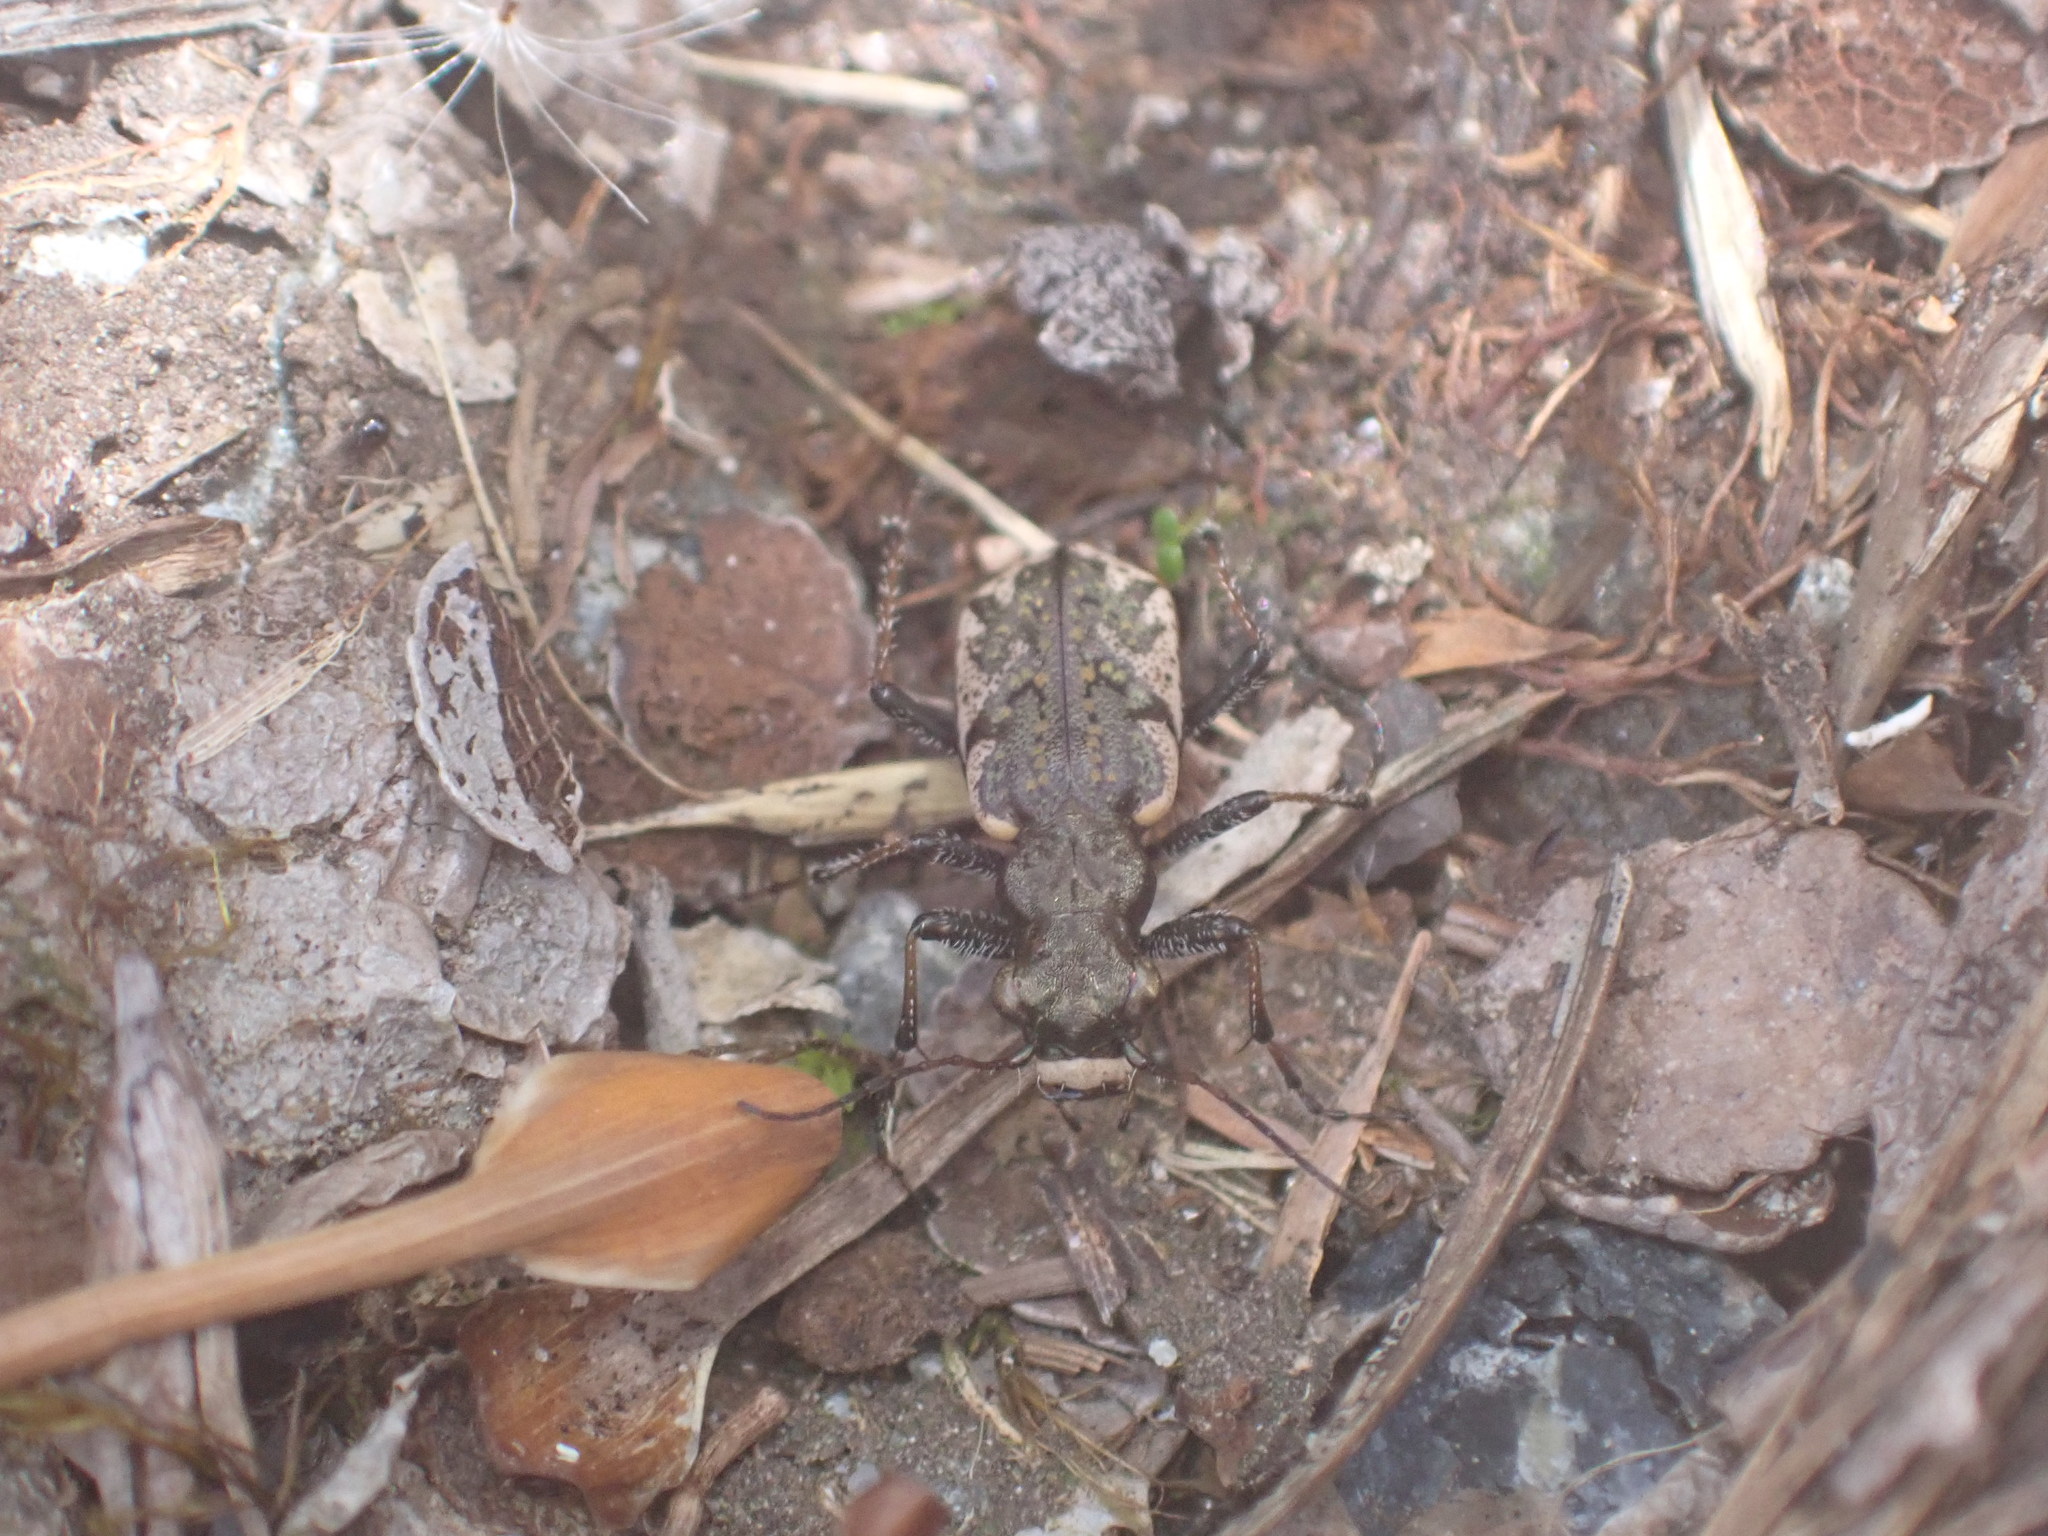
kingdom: Animalia
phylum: Arthropoda
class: Insecta
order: Coleoptera
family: Carabidae
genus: Neocicindela
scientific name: Neocicindela garnerae
